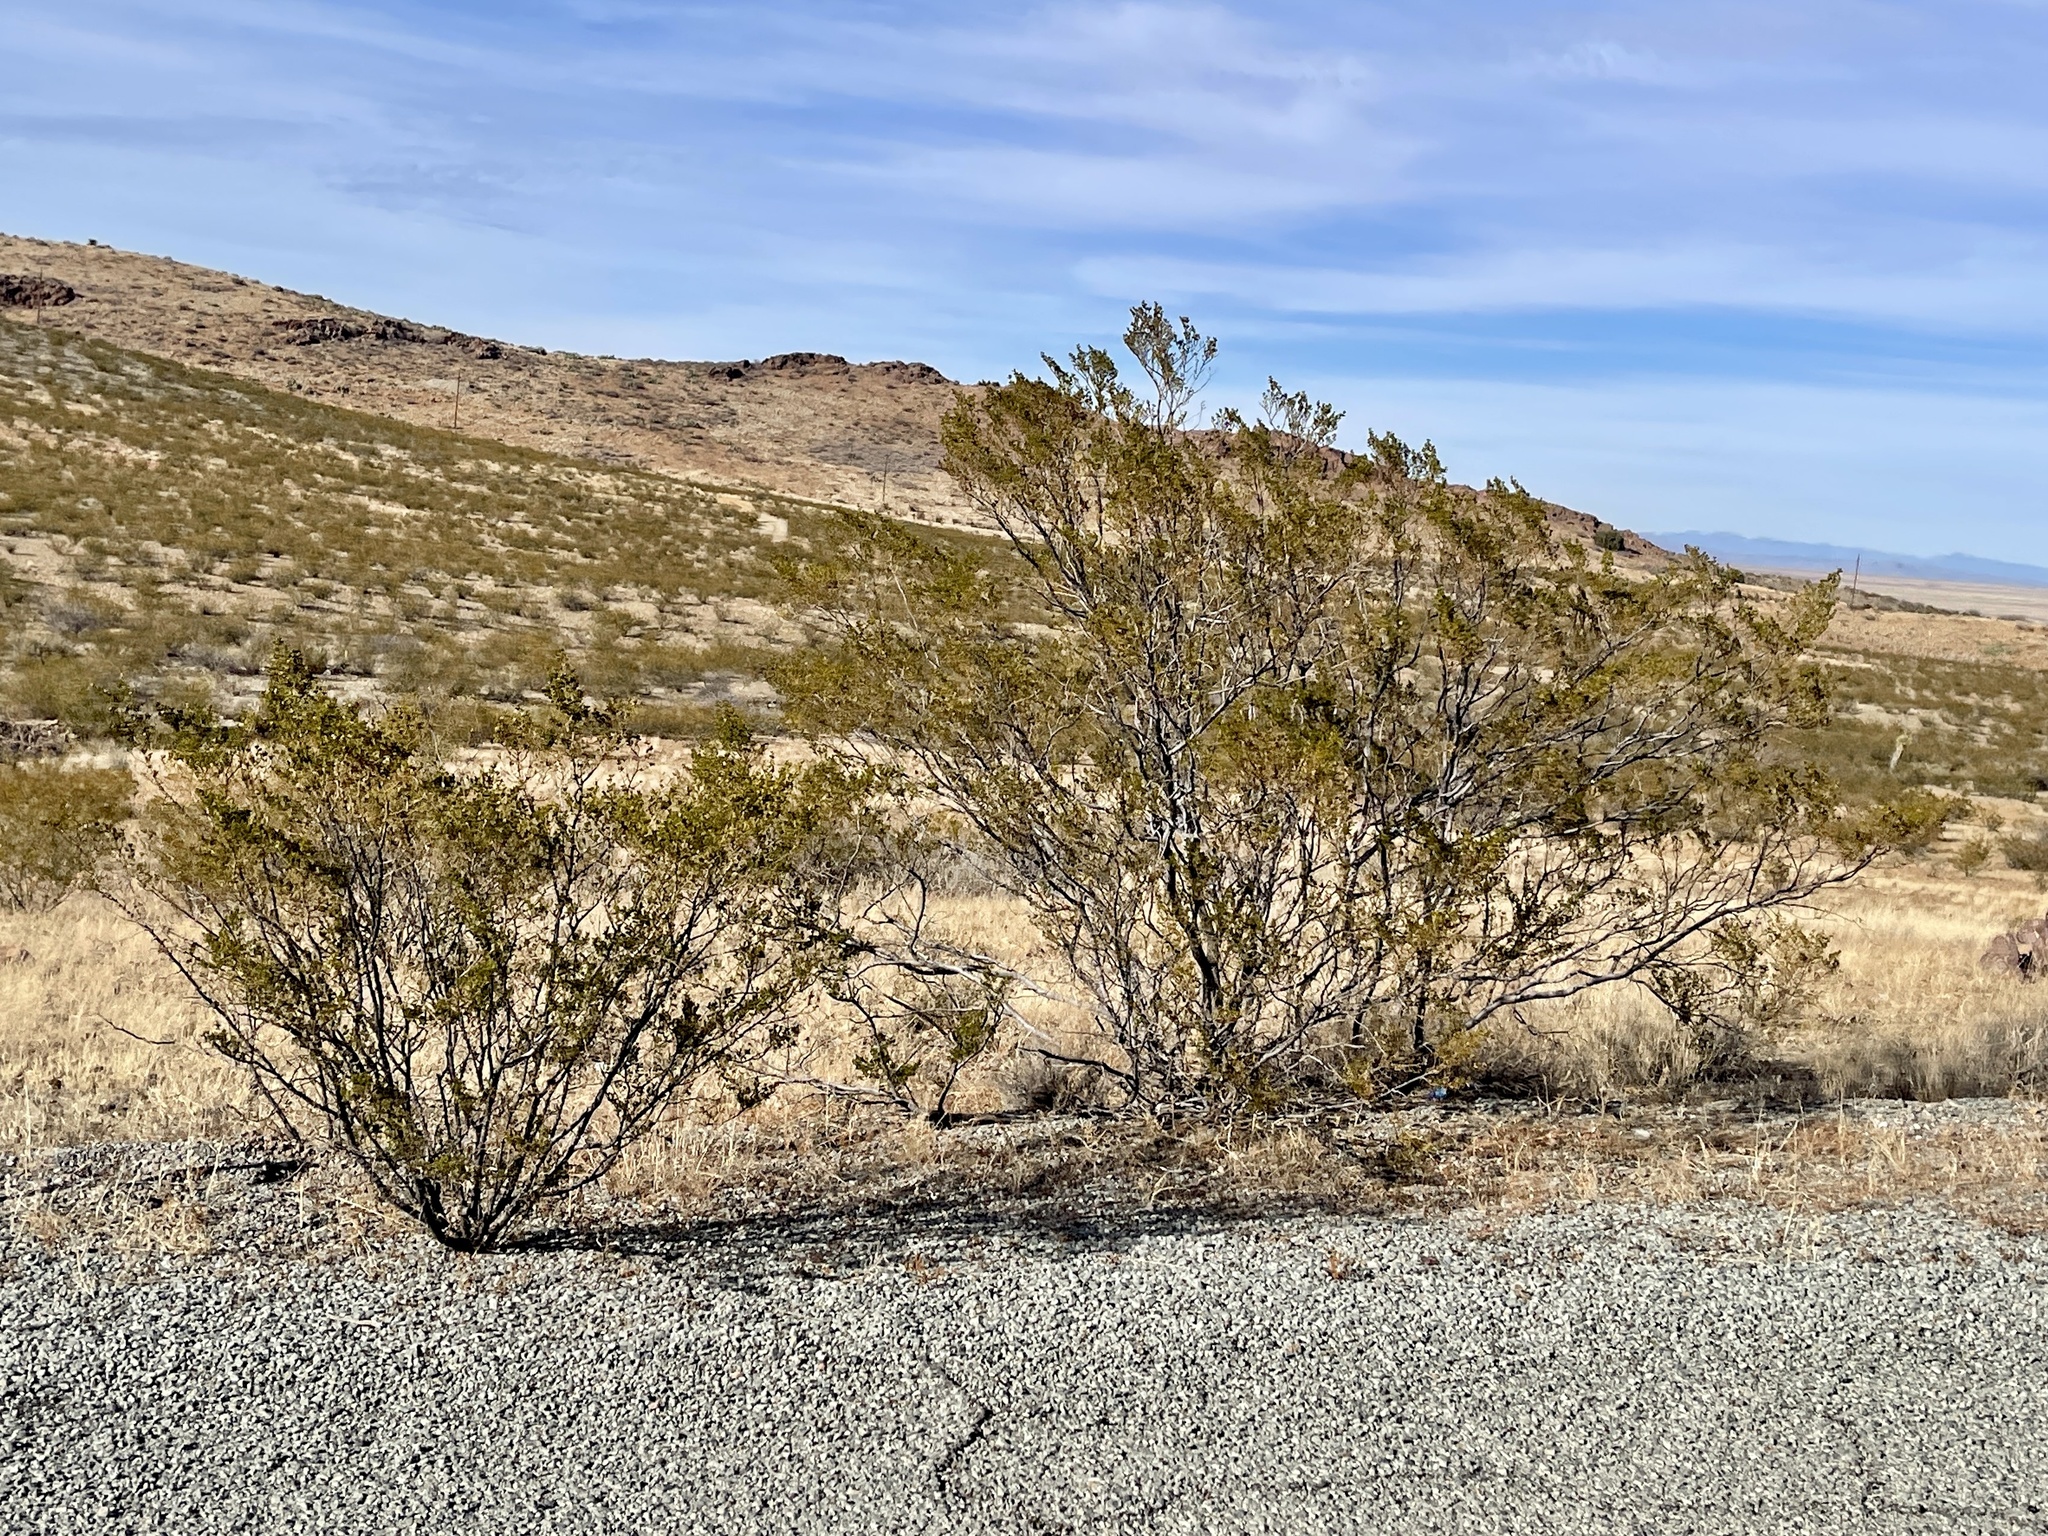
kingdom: Plantae
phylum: Tracheophyta
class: Magnoliopsida
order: Zygophyllales
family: Zygophyllaceae
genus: Larrea
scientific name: Larrea tridentata
